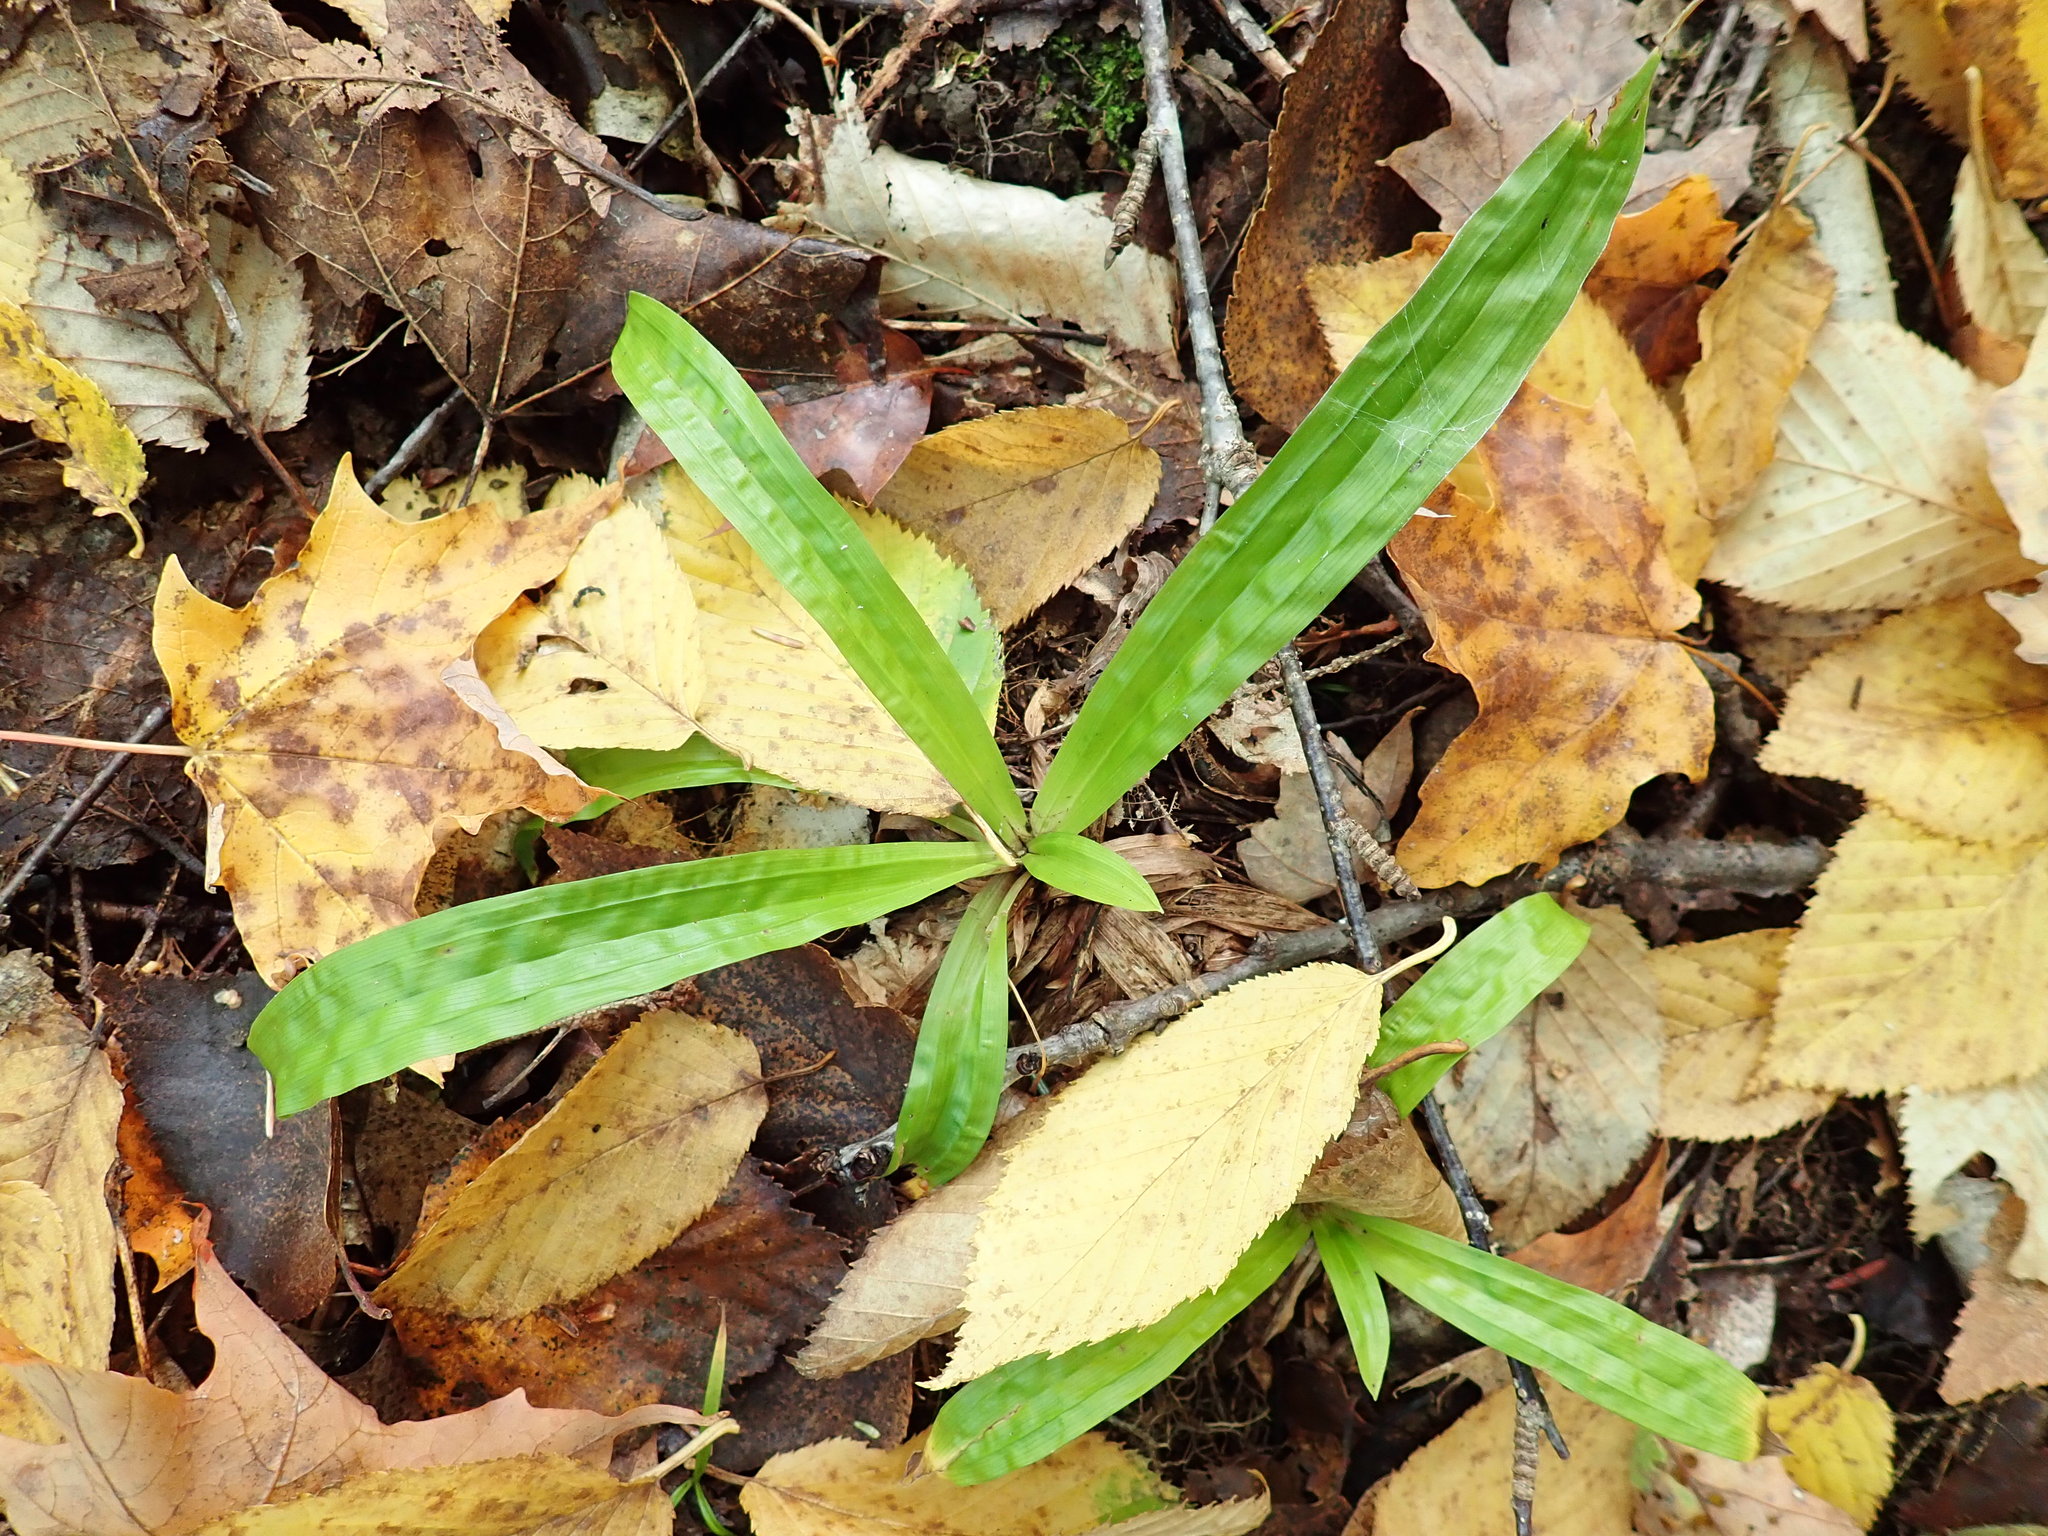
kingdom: Plantae
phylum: Tracheophyta
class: Liliopsida
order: Poales
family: Cyperaceae
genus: Carex
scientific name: Carex plantaginea
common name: Plantain-leaved sedge
